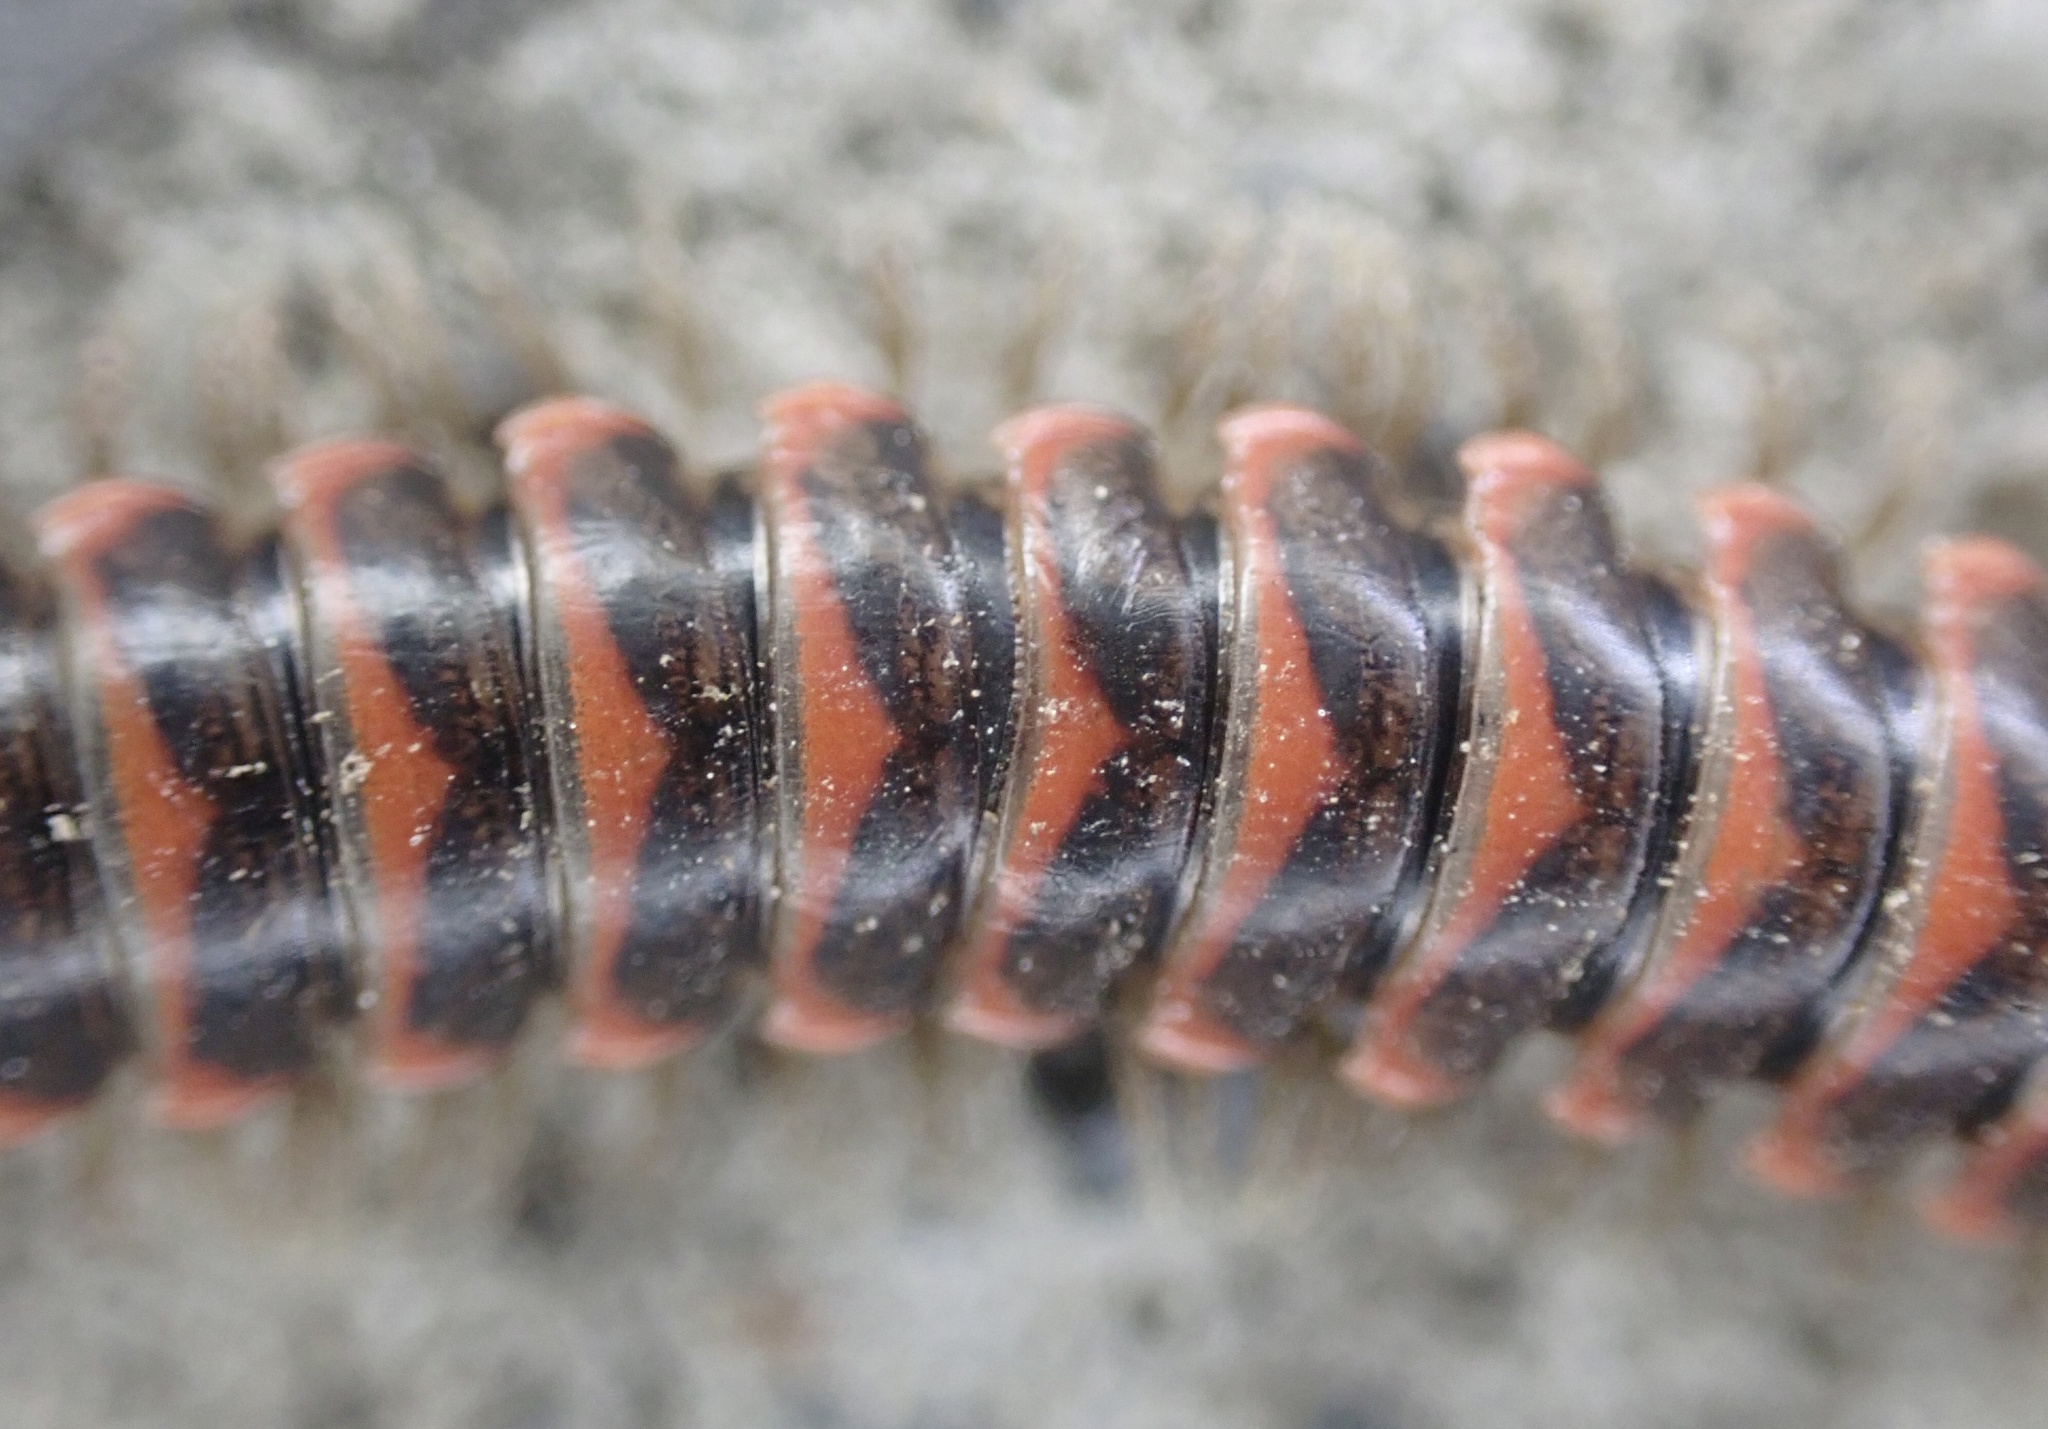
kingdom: Animalia
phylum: Arthropoda
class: Diplopoda
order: Polydesmida
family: Xystodesmidae
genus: Oenomaea
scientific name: Oenomaea pulchella
